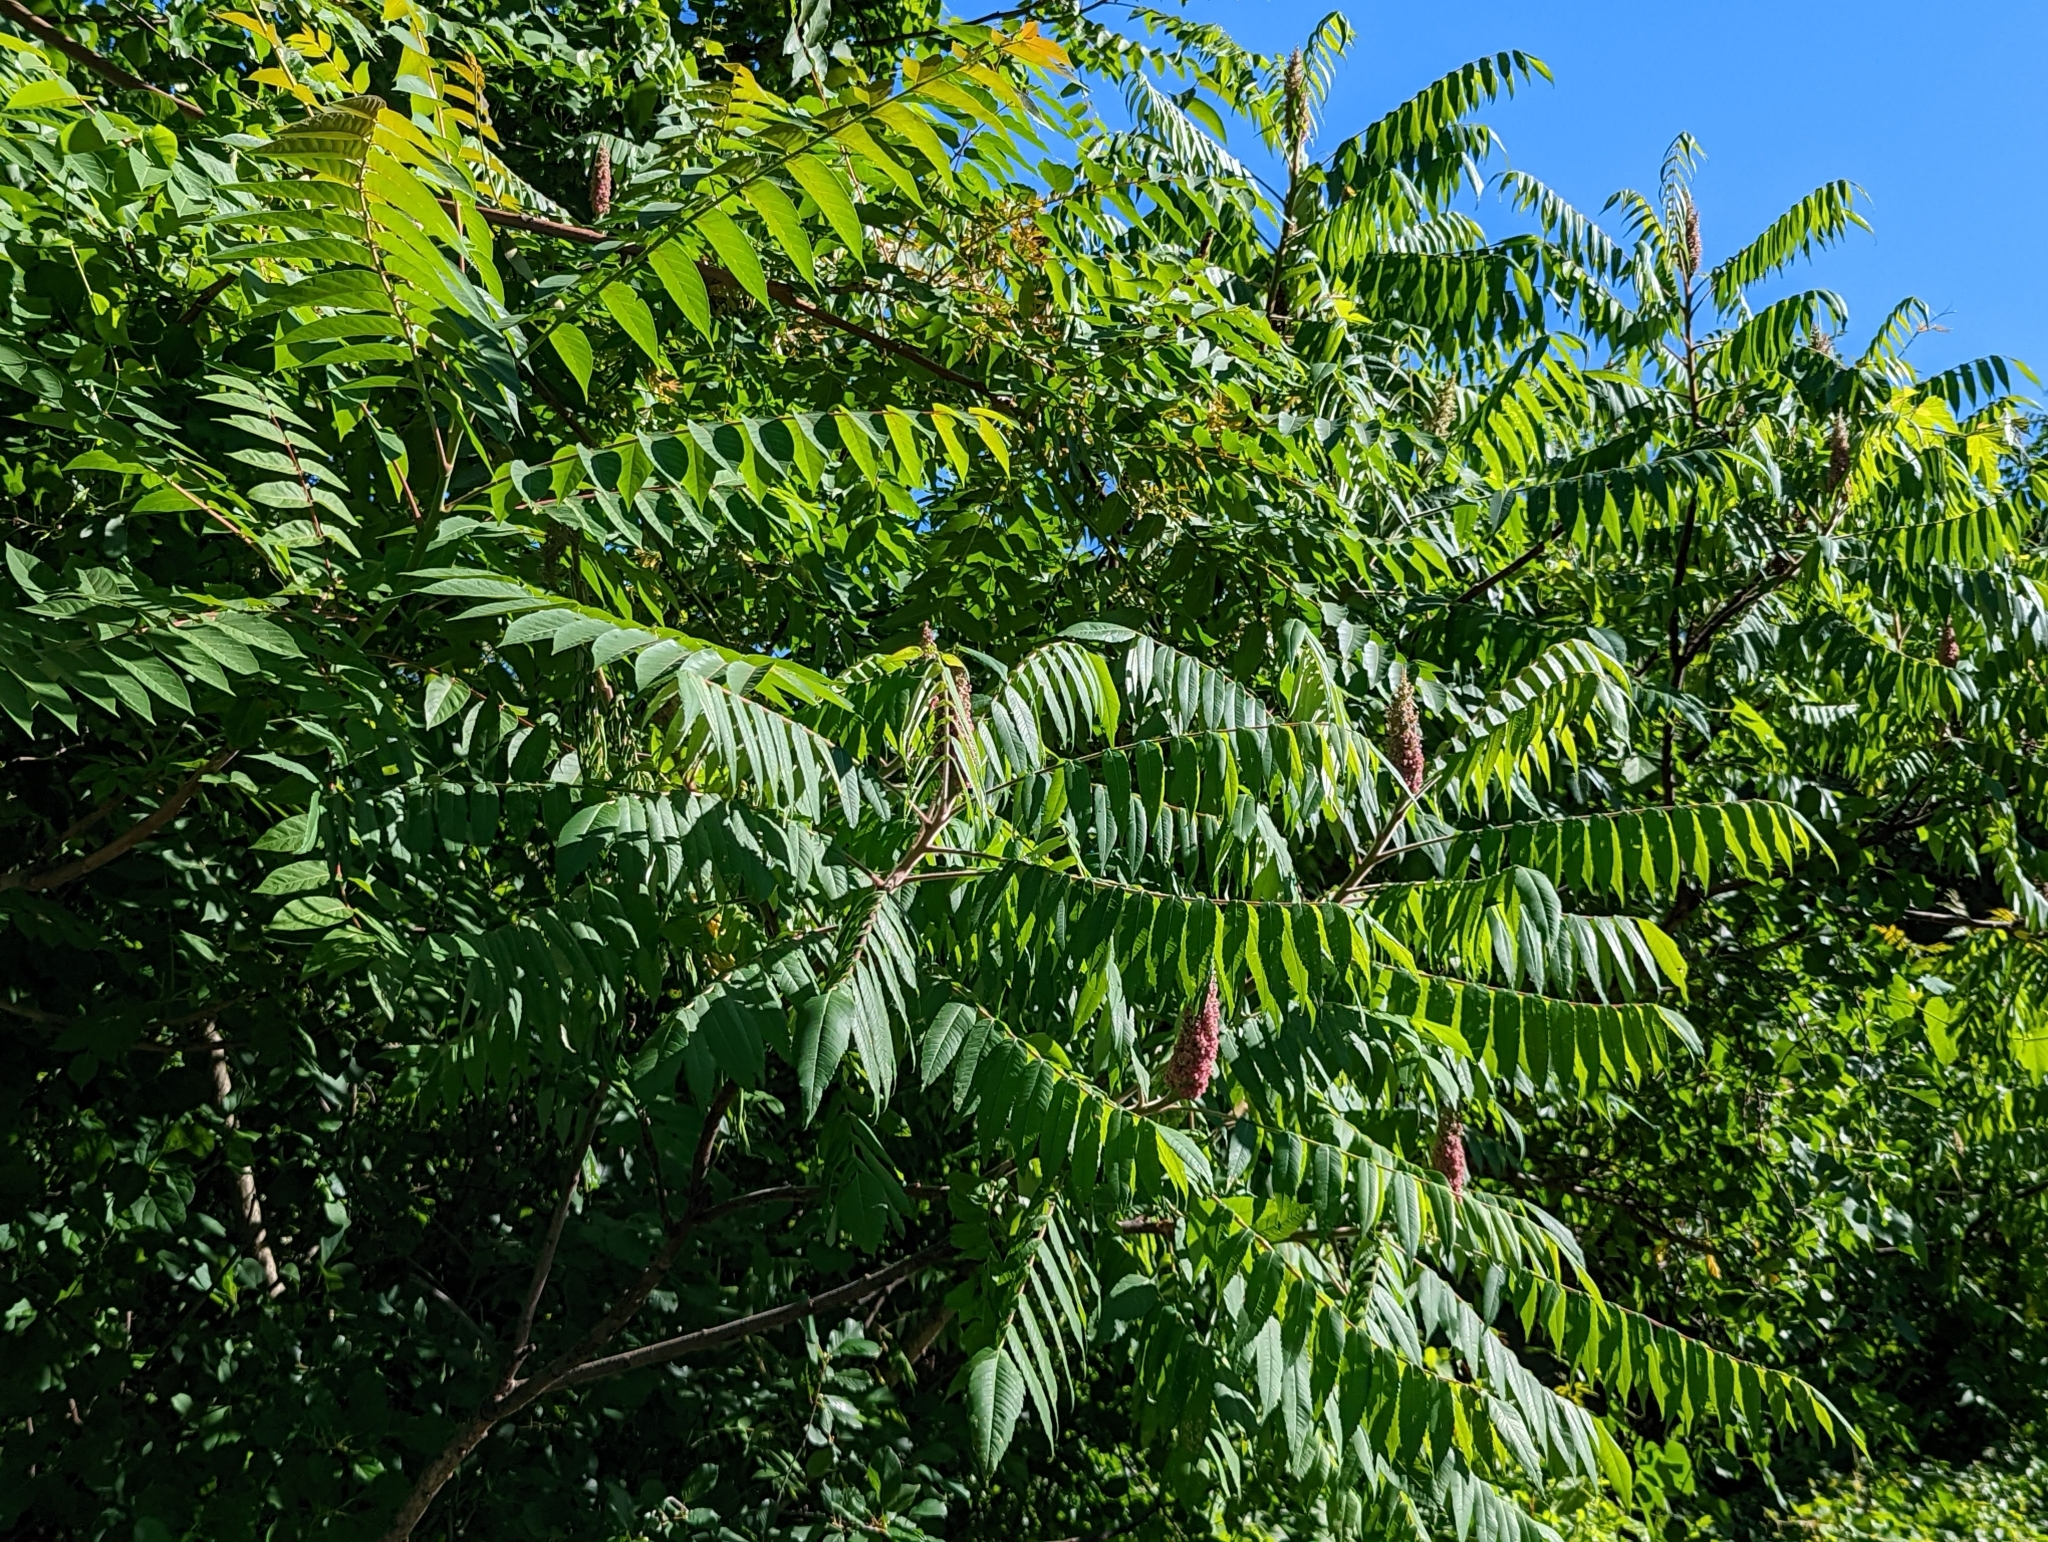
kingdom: Plantae
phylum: Tracheophyta
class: Magnoliopsida
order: Sapindales
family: Anacardiaceae
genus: Rhus
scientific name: Rhus typhina
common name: Staghorn sumac
